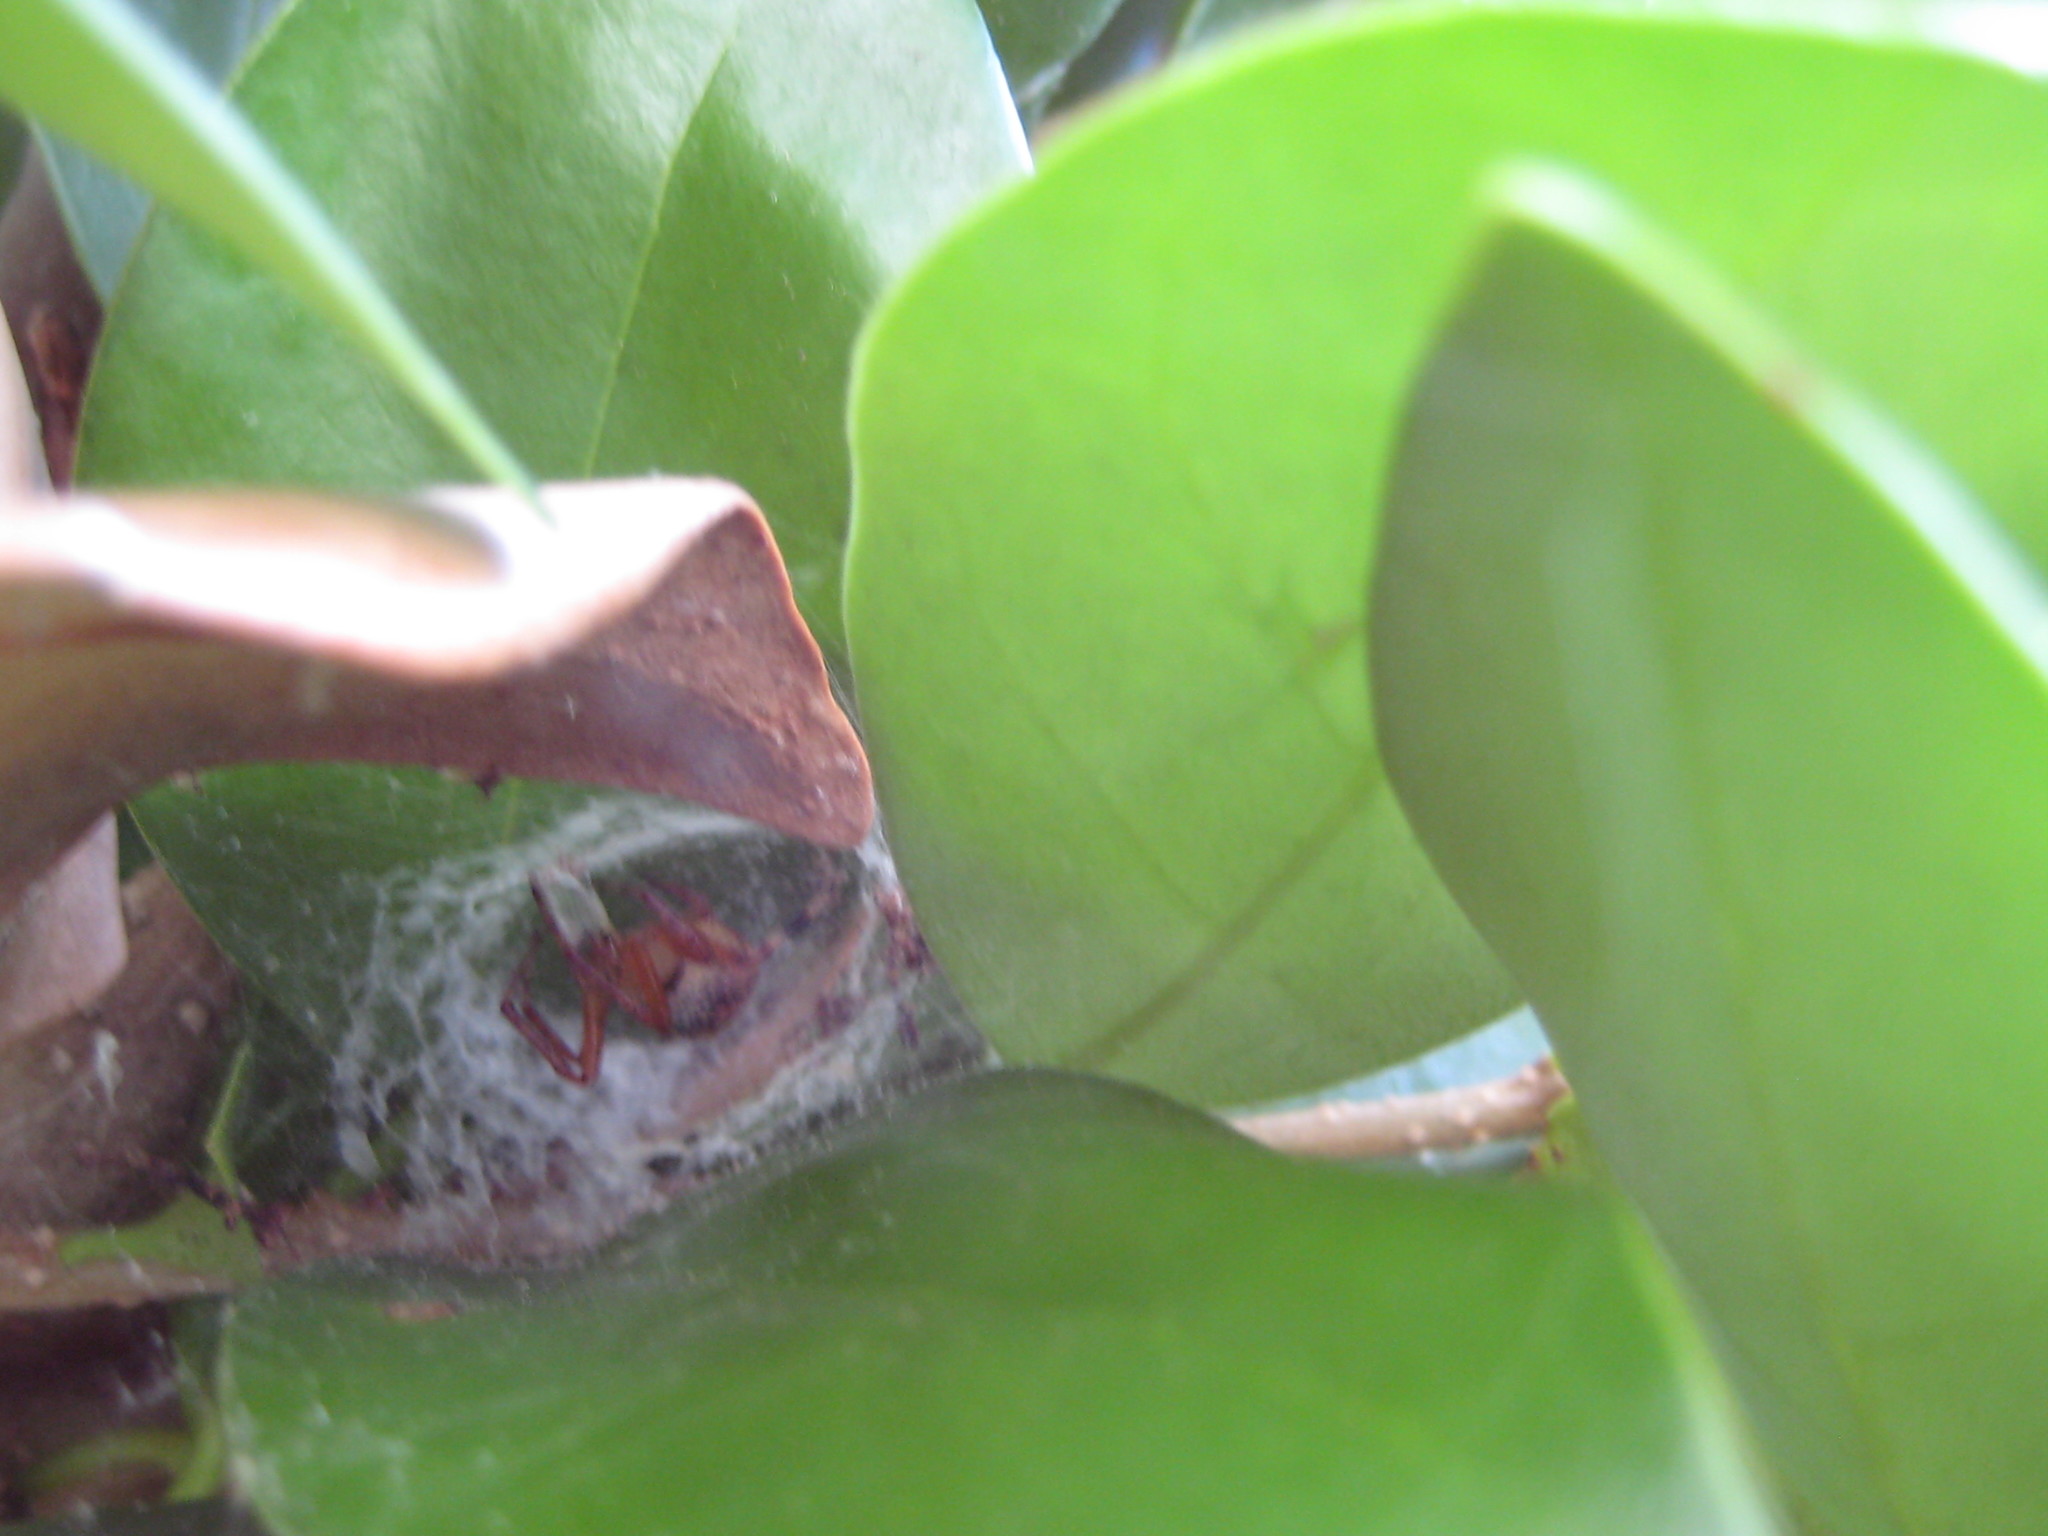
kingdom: Animalia
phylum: Arthropoda
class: Arachnida
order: Araneae
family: Araneidae
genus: Araneus
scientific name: Araneus pegnia
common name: Orb weavers
